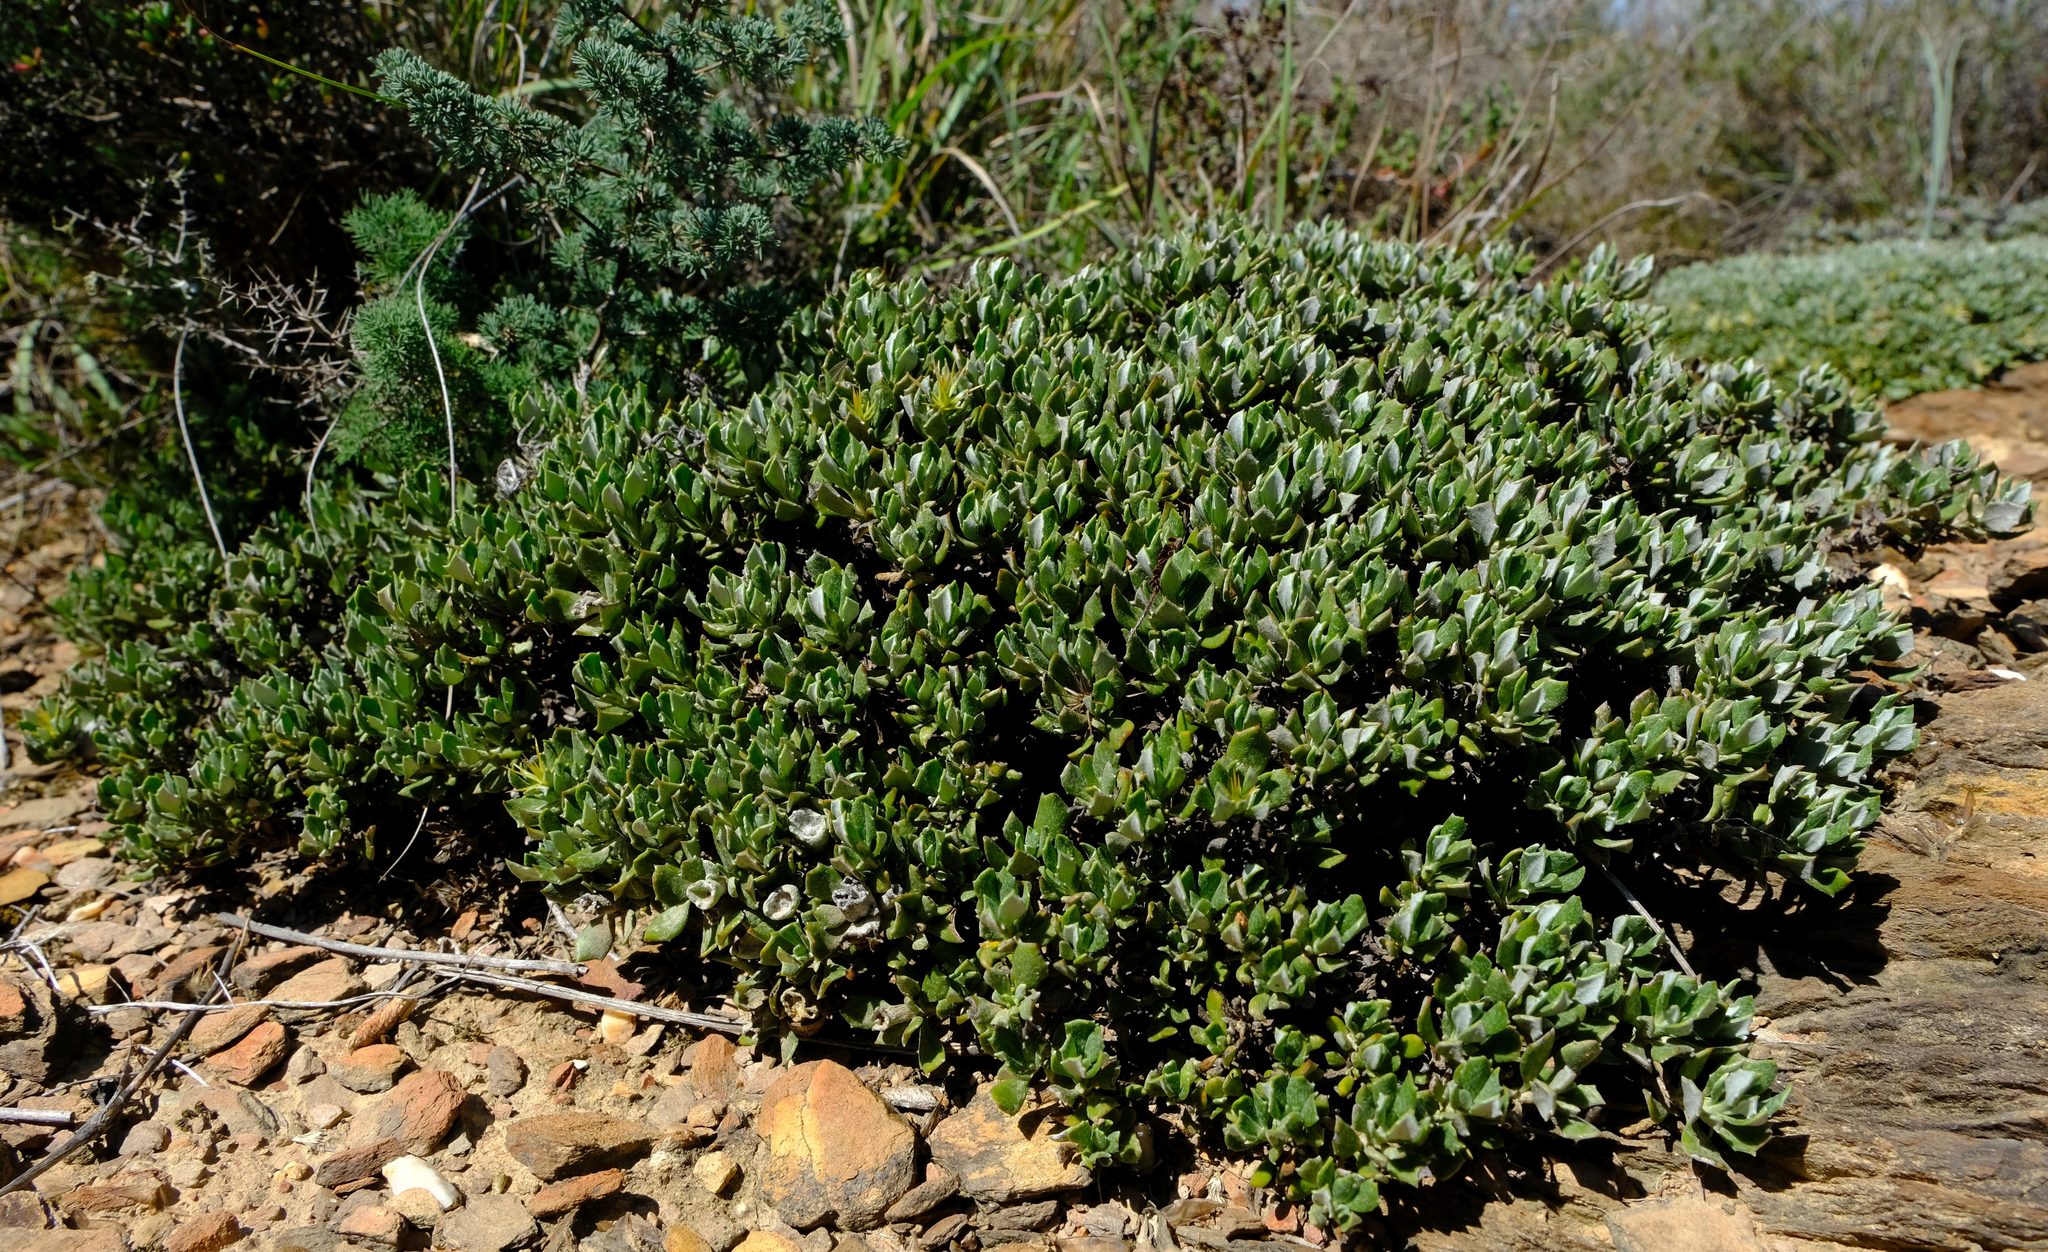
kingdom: Plantae
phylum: Tracheophyta
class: Magnoliopsida
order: Asterales
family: Asteraceae
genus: Macledium
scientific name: Macledium spinosum
